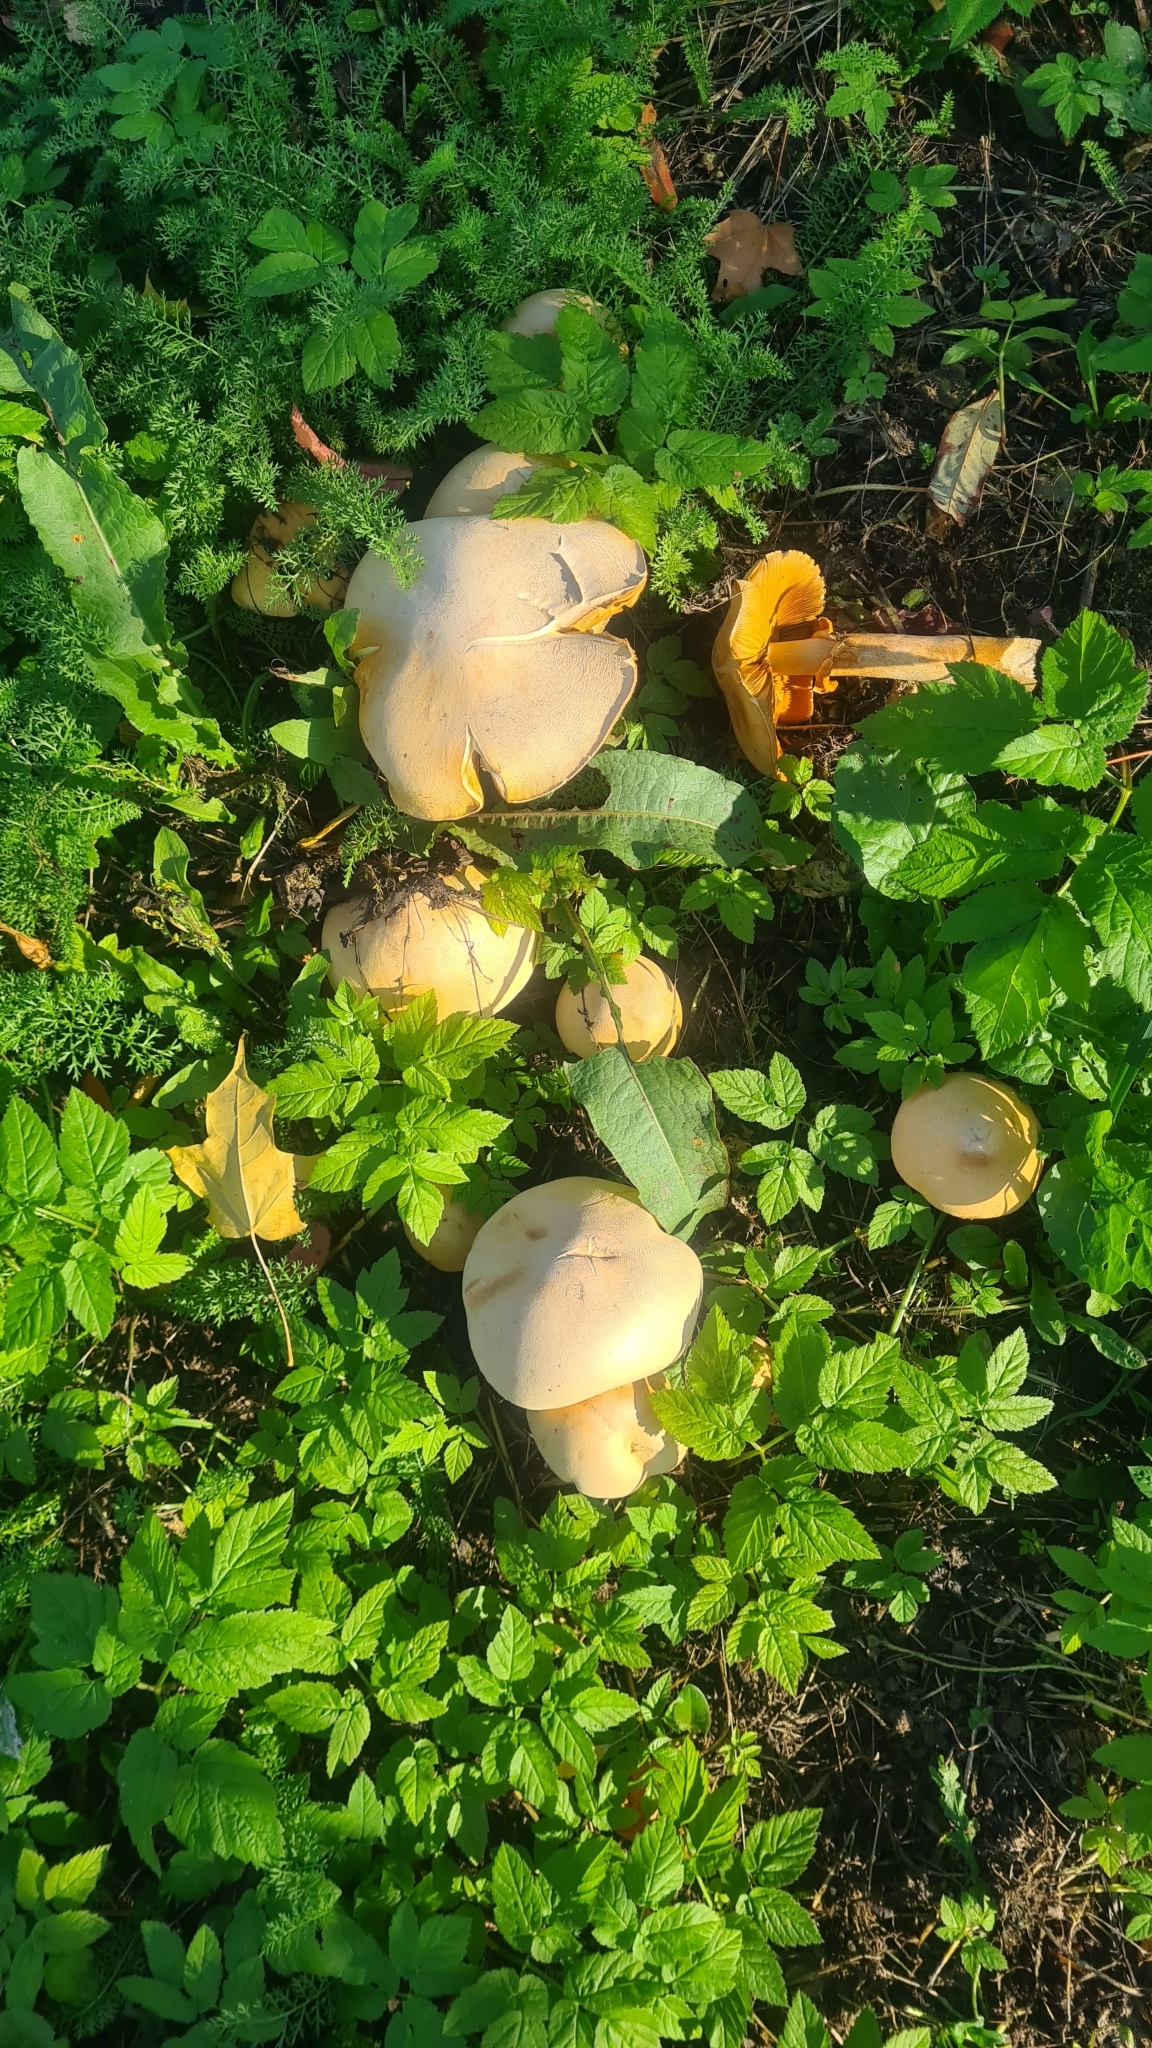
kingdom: Fungi
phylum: Basidiomycota
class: Agaricomycetes
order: Agaricales
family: Tricholomataceae
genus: Phaeolepiota
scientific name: Phaeolepiota aurea
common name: Golden bootleg
